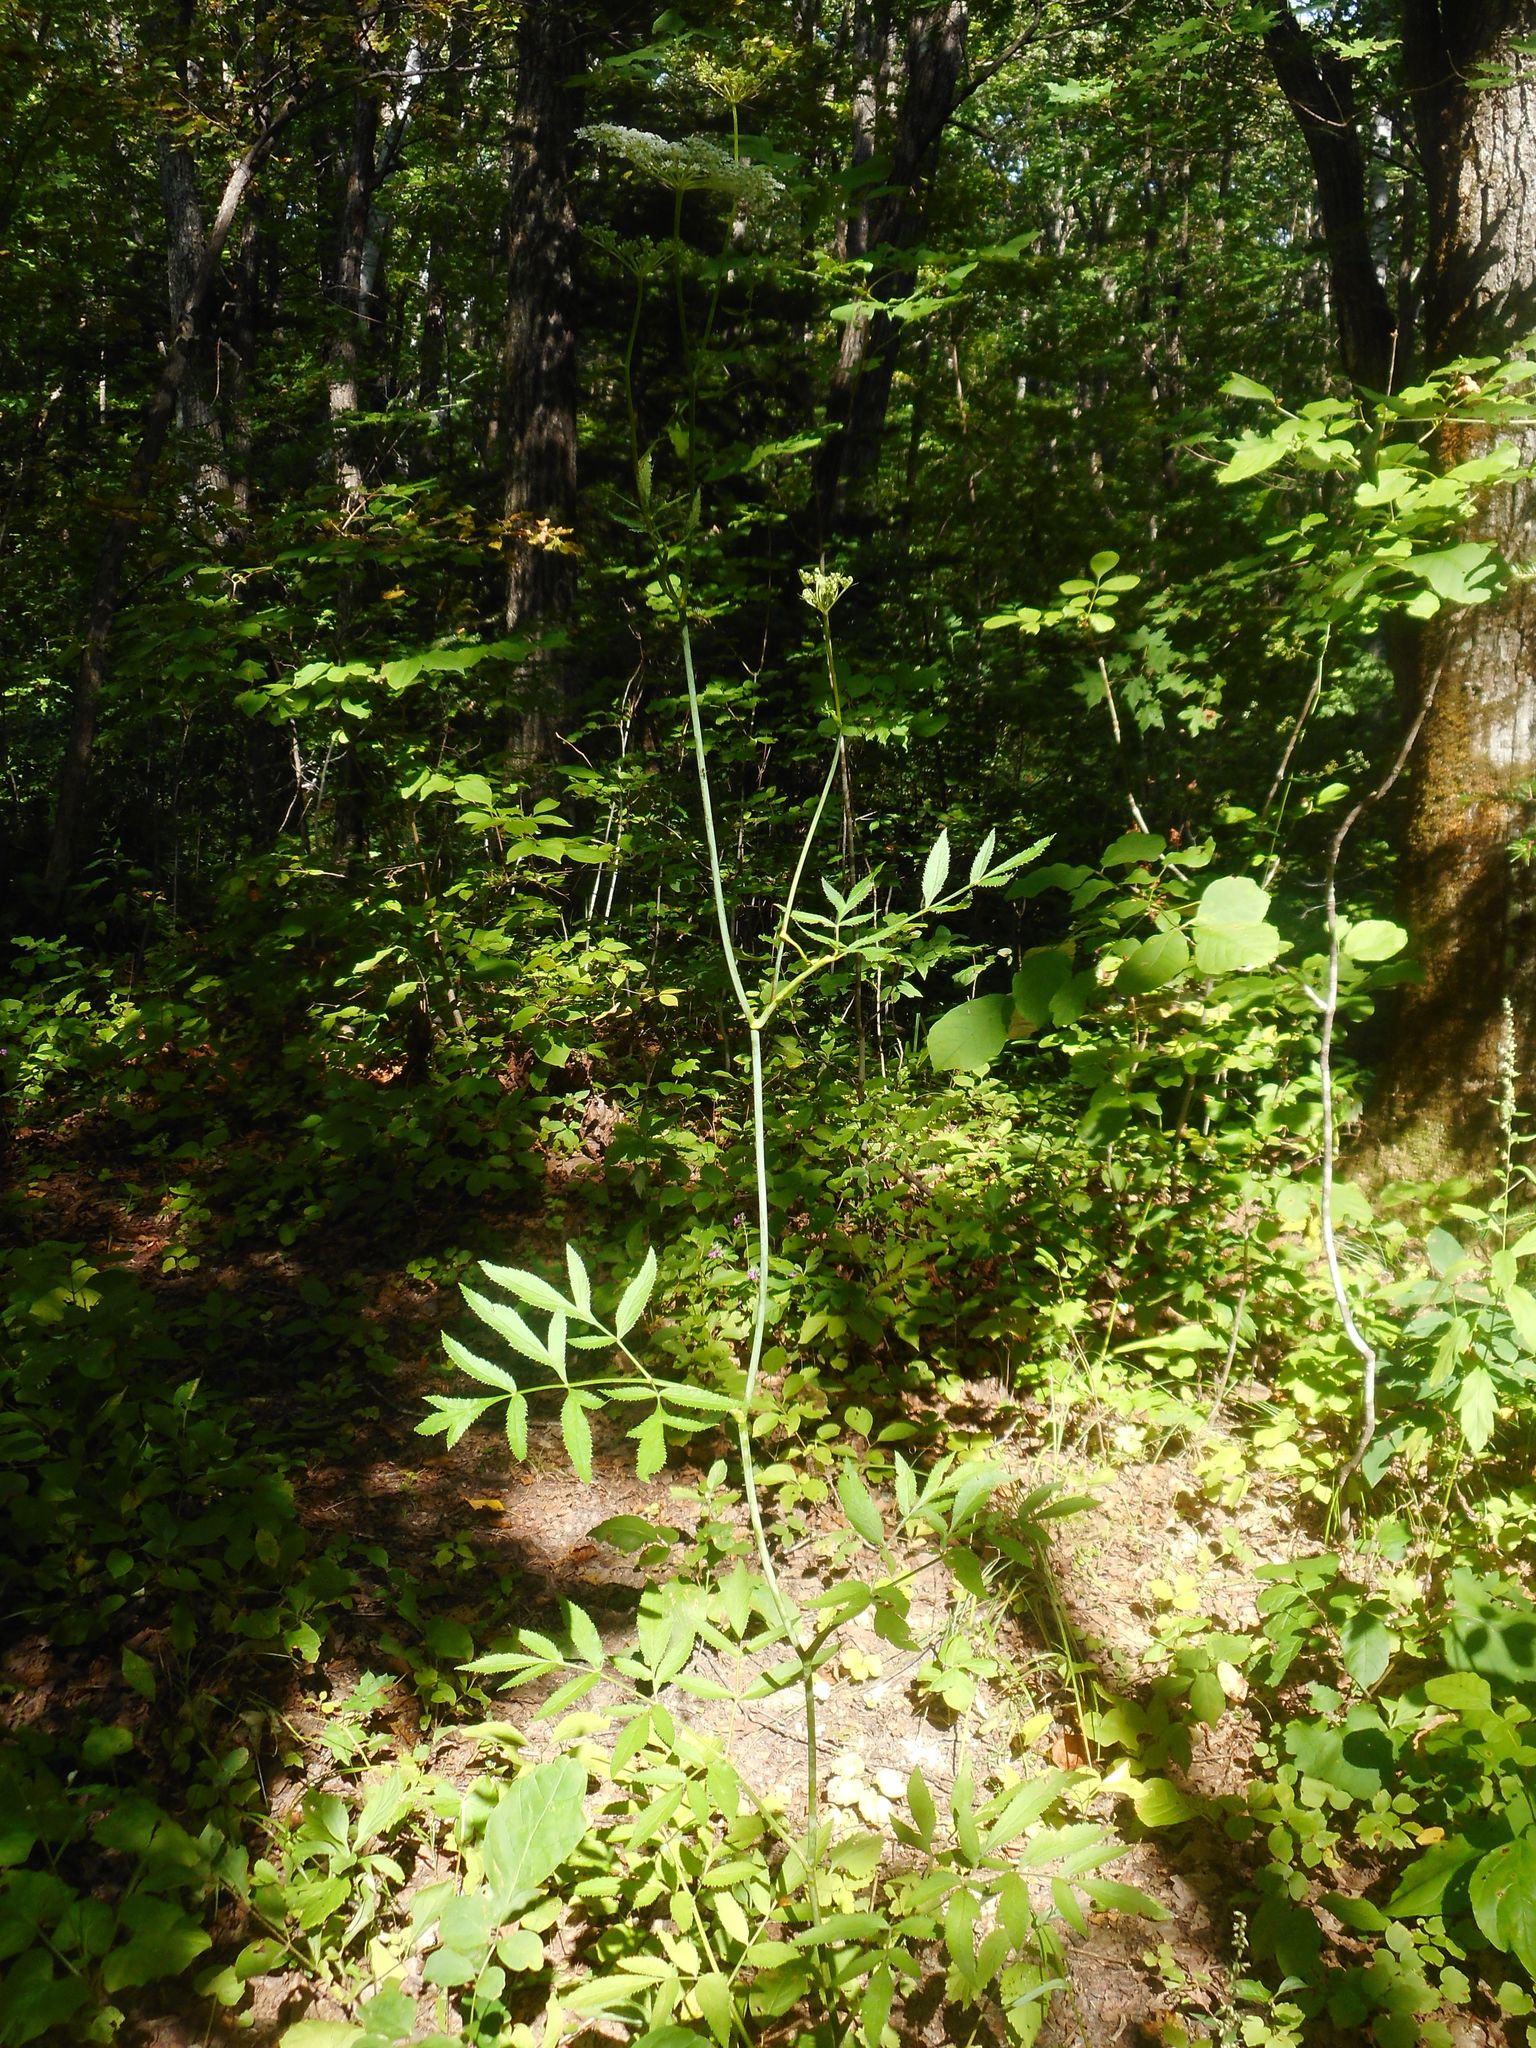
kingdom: Plantae
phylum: Tracheophyta
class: Magnoliopsida
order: Apiales
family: Apiaceae
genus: Angelica
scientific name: Angelica czernaevia
